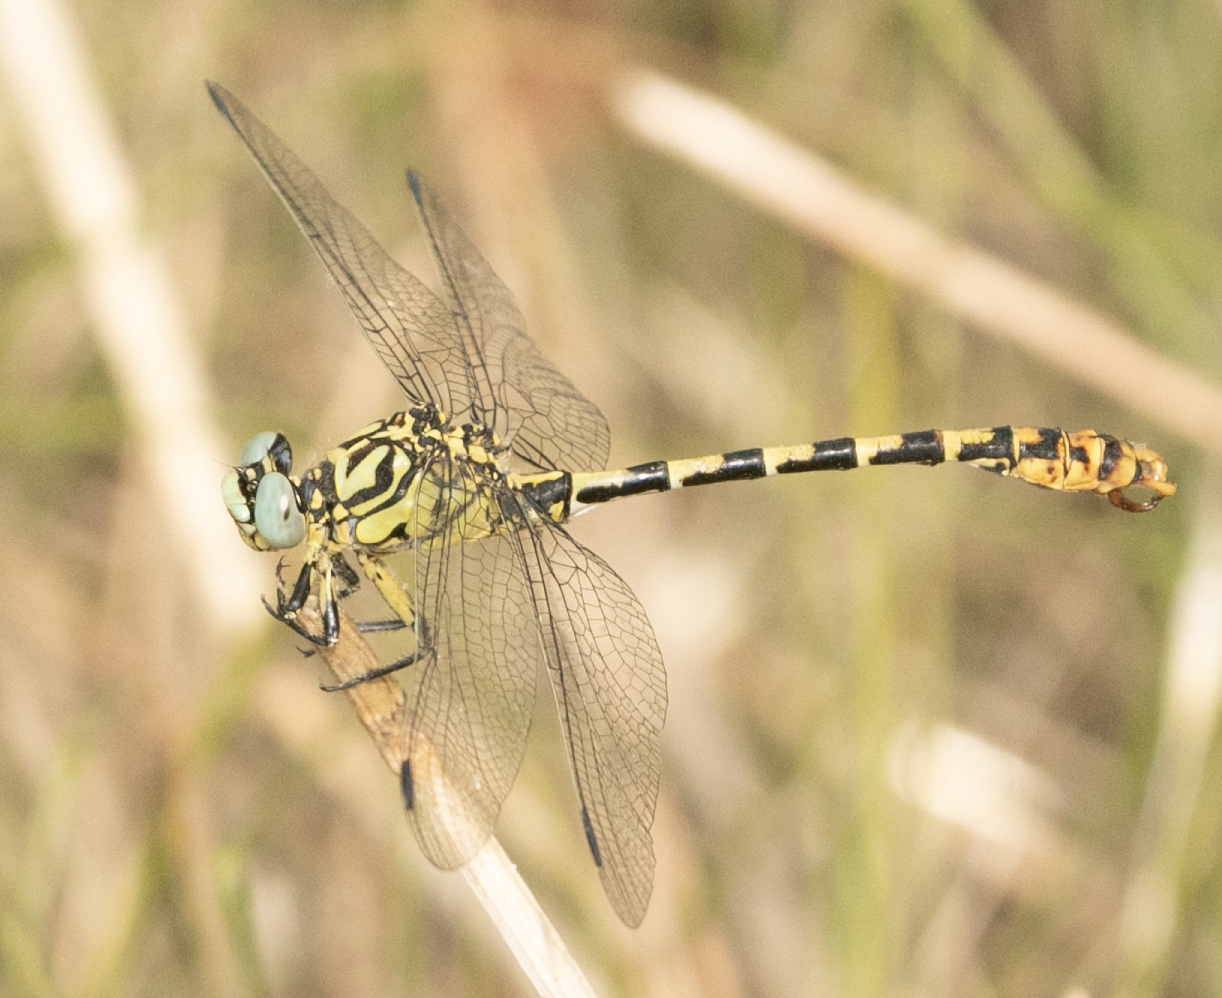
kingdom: Animalia
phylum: Arthropoda
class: Insecta
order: Odonata
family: Gomphidae
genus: Onychogomphus
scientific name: Onychogomphus forcipatus
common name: Small pincertail
